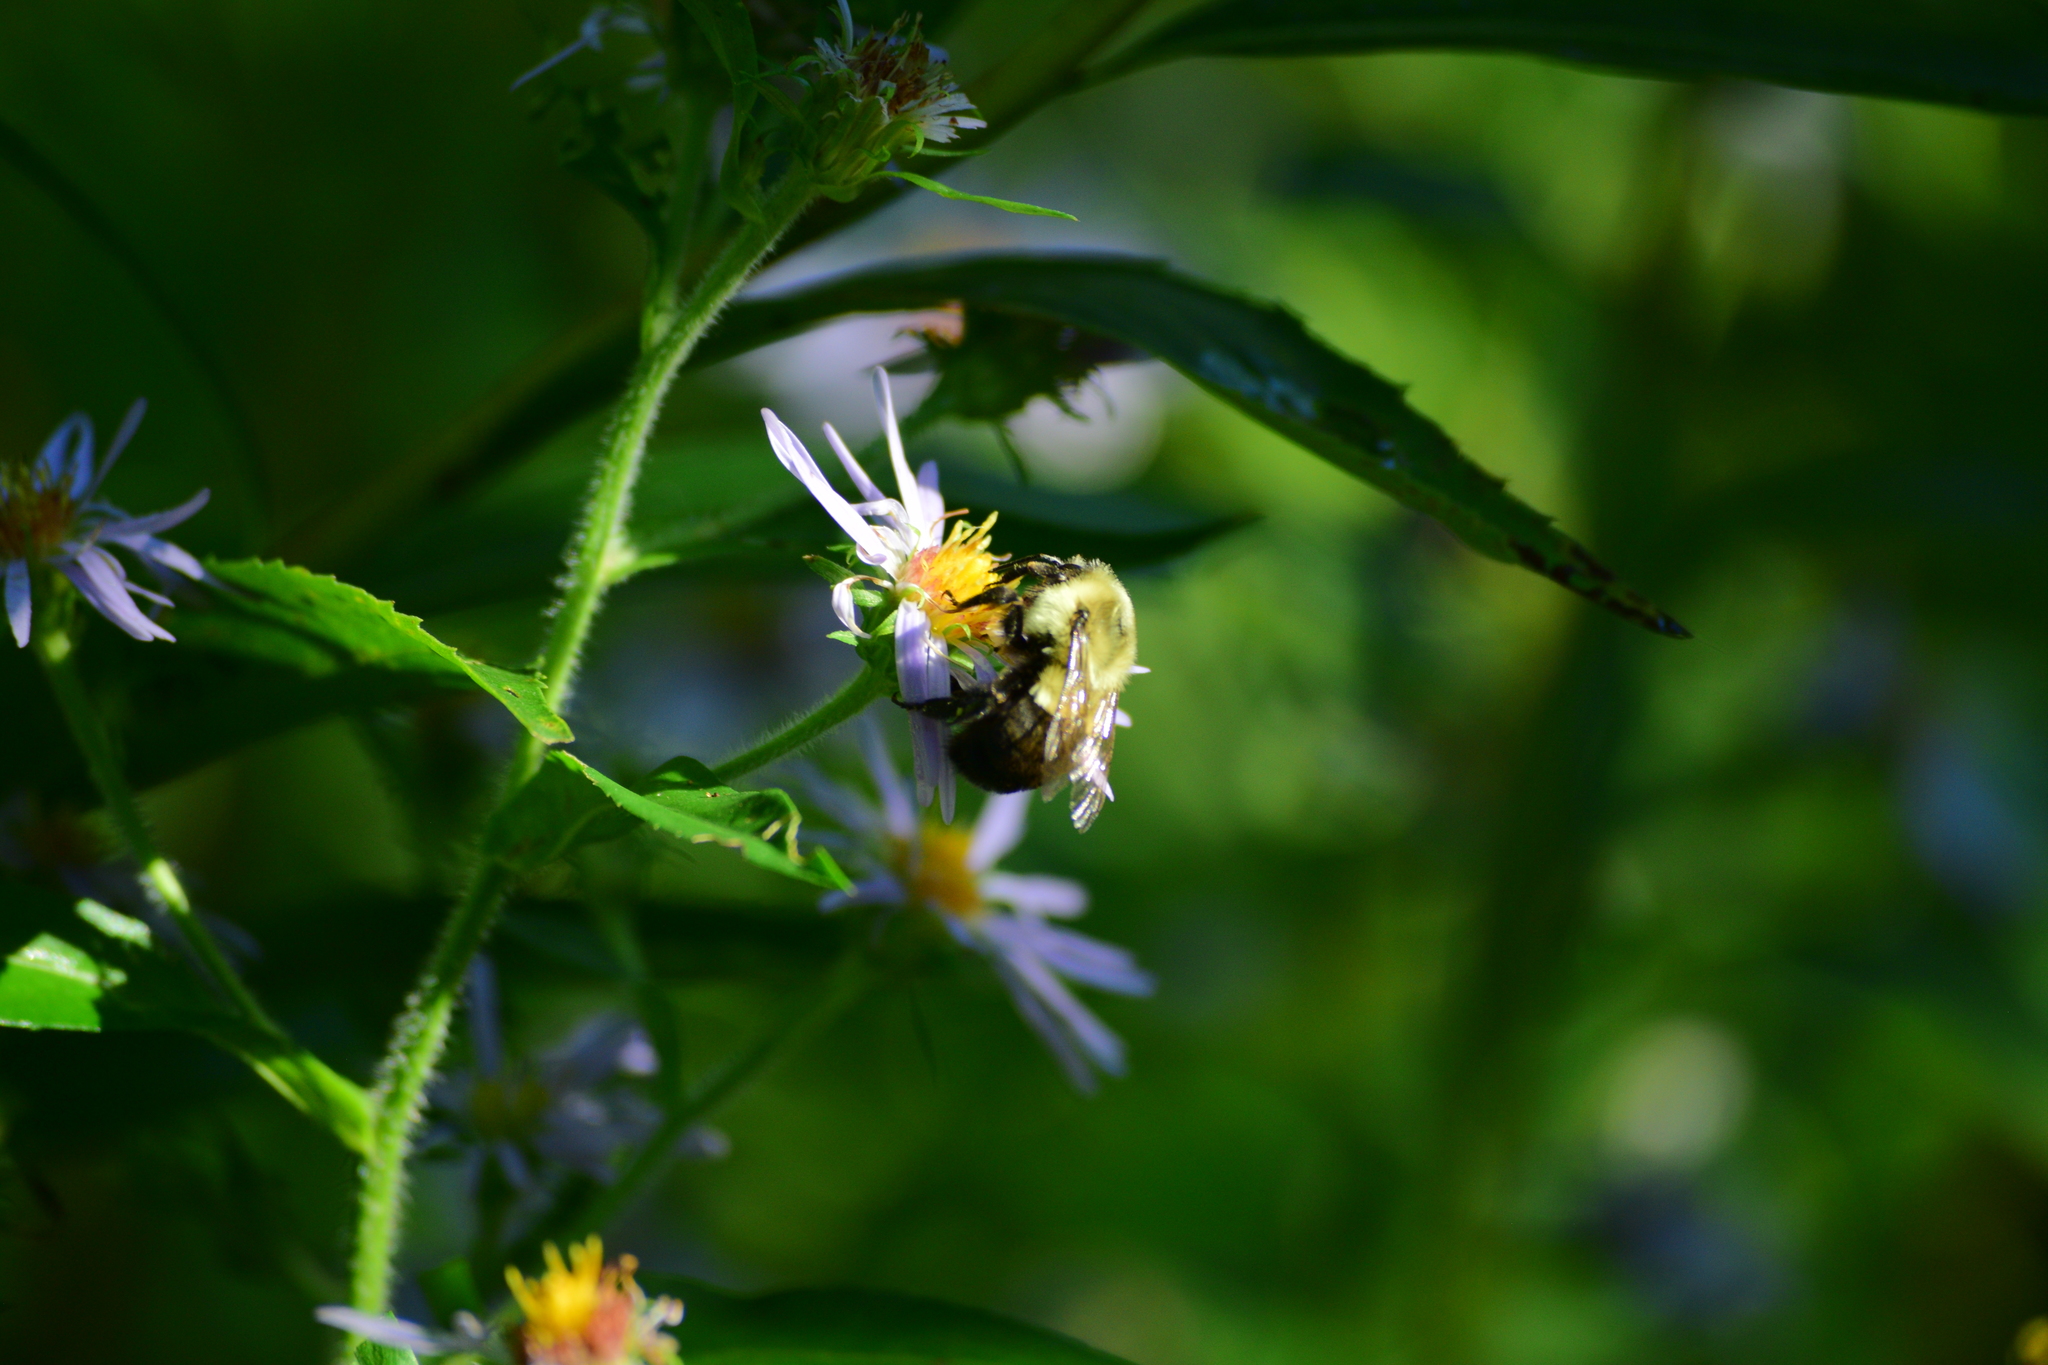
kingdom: Animalia
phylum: Arthropoda
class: Insecta
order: Hymenoptera
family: Apidae
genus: Bombus
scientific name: Bombus impatiens
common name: Common eastern bumble bee
